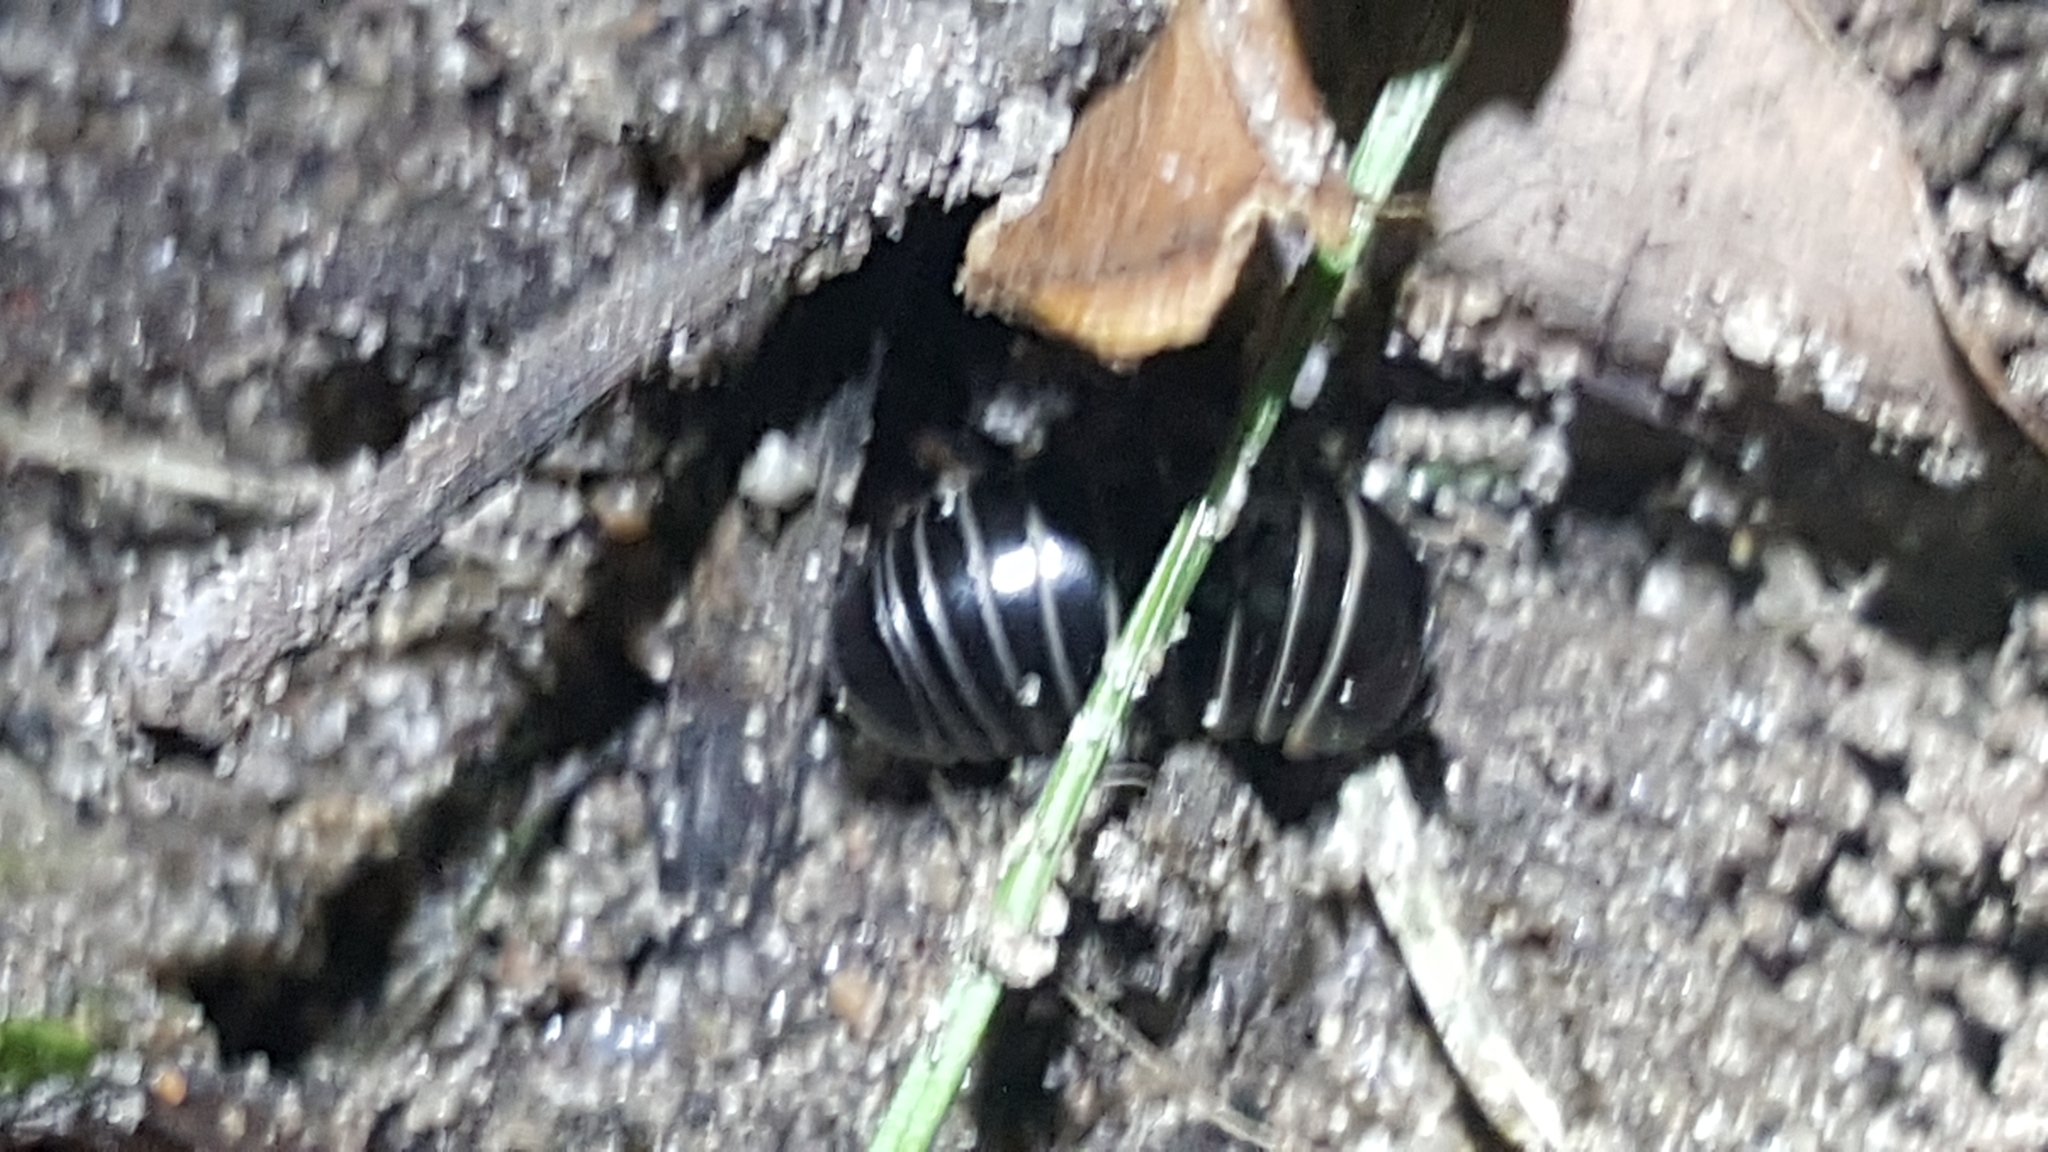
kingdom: Animalia
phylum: Arthropoda
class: Diplopoda
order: Glomerida
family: Glomeridae
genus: Glomeris
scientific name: Glomeris marginata
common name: Bordered pill millipede
